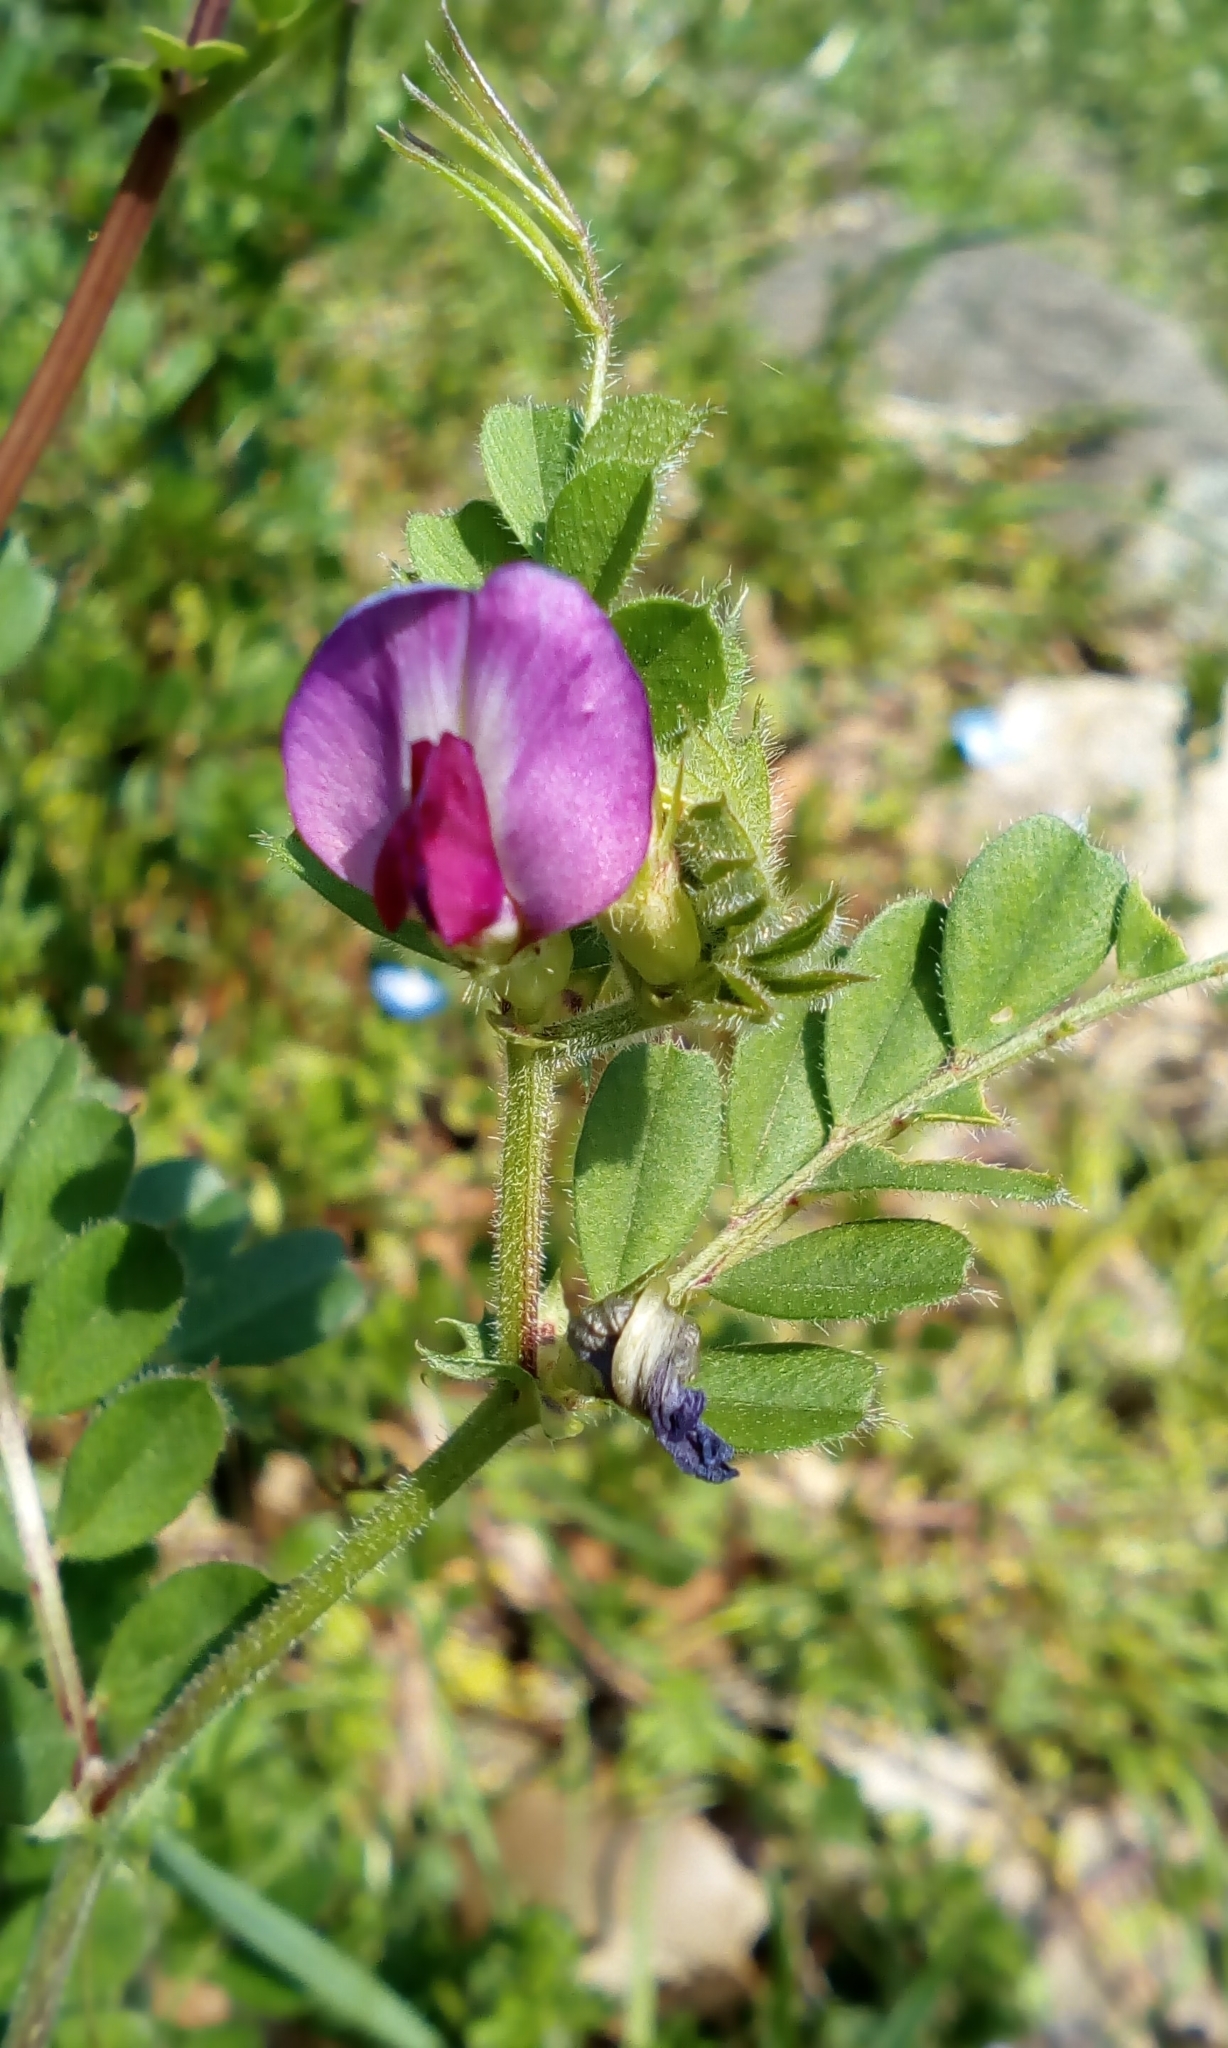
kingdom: Plantae
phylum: Tracheophyta
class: Magnoliopsida
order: Fabales
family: Fabaceae
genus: Vicia
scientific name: Vicia sativa
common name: Garden vetch
